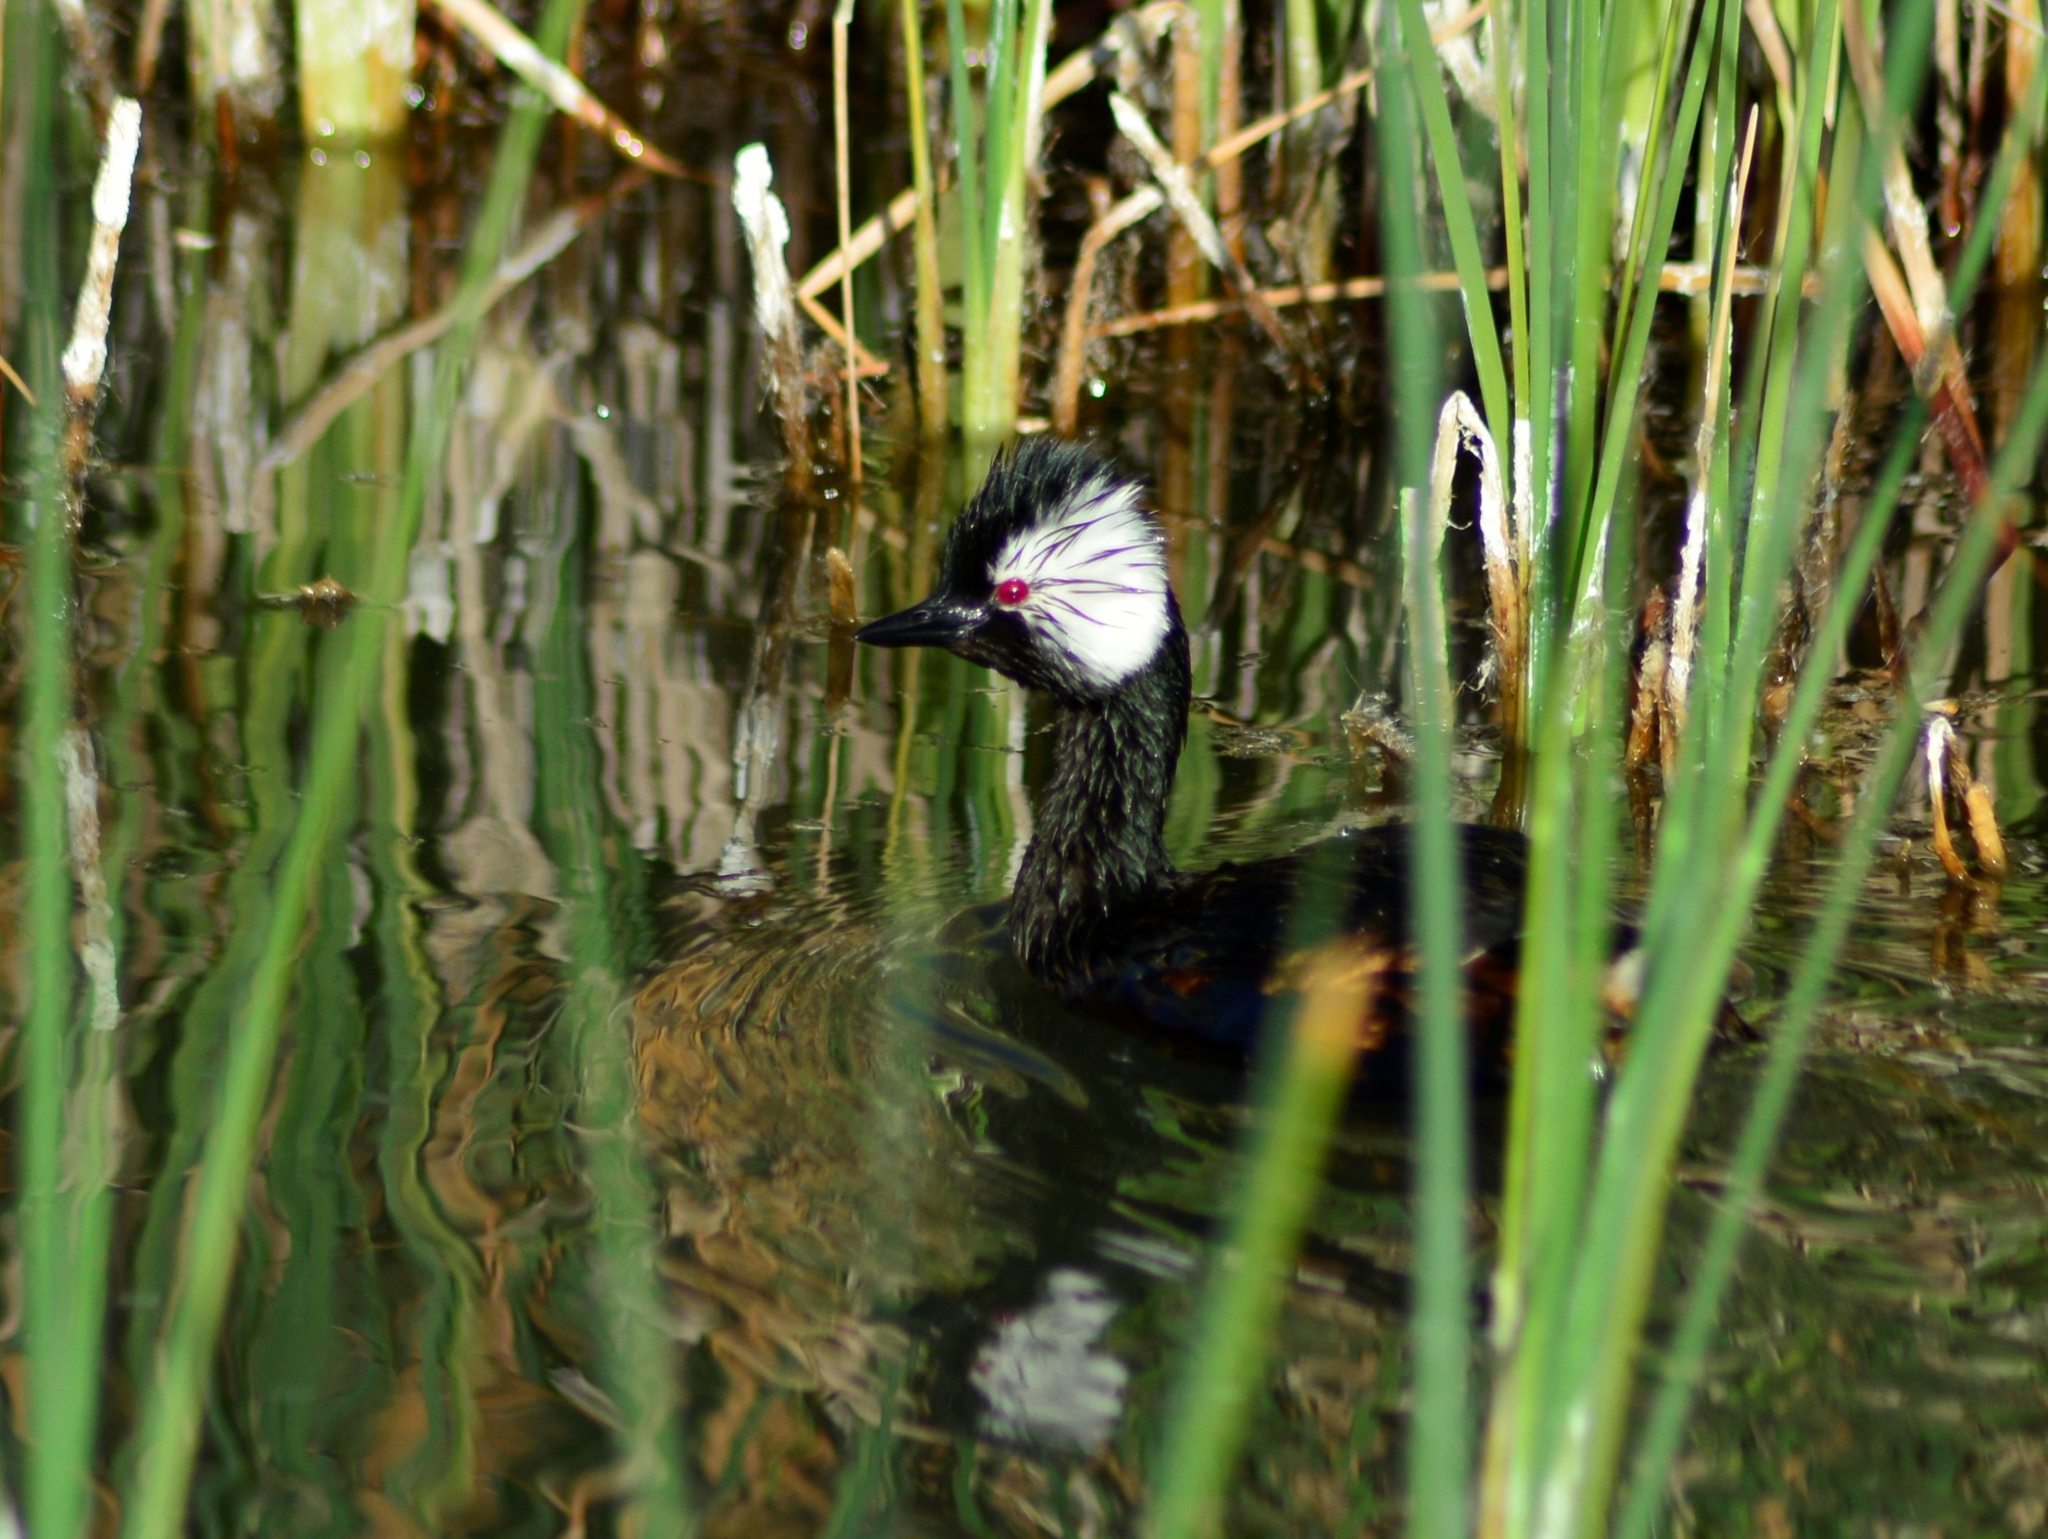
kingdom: Animalia
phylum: Chordata
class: Aves
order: Podicipediformes
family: Podicipedidae
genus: Rollandia
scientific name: Rollandia rolland
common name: White-tufted grebe
